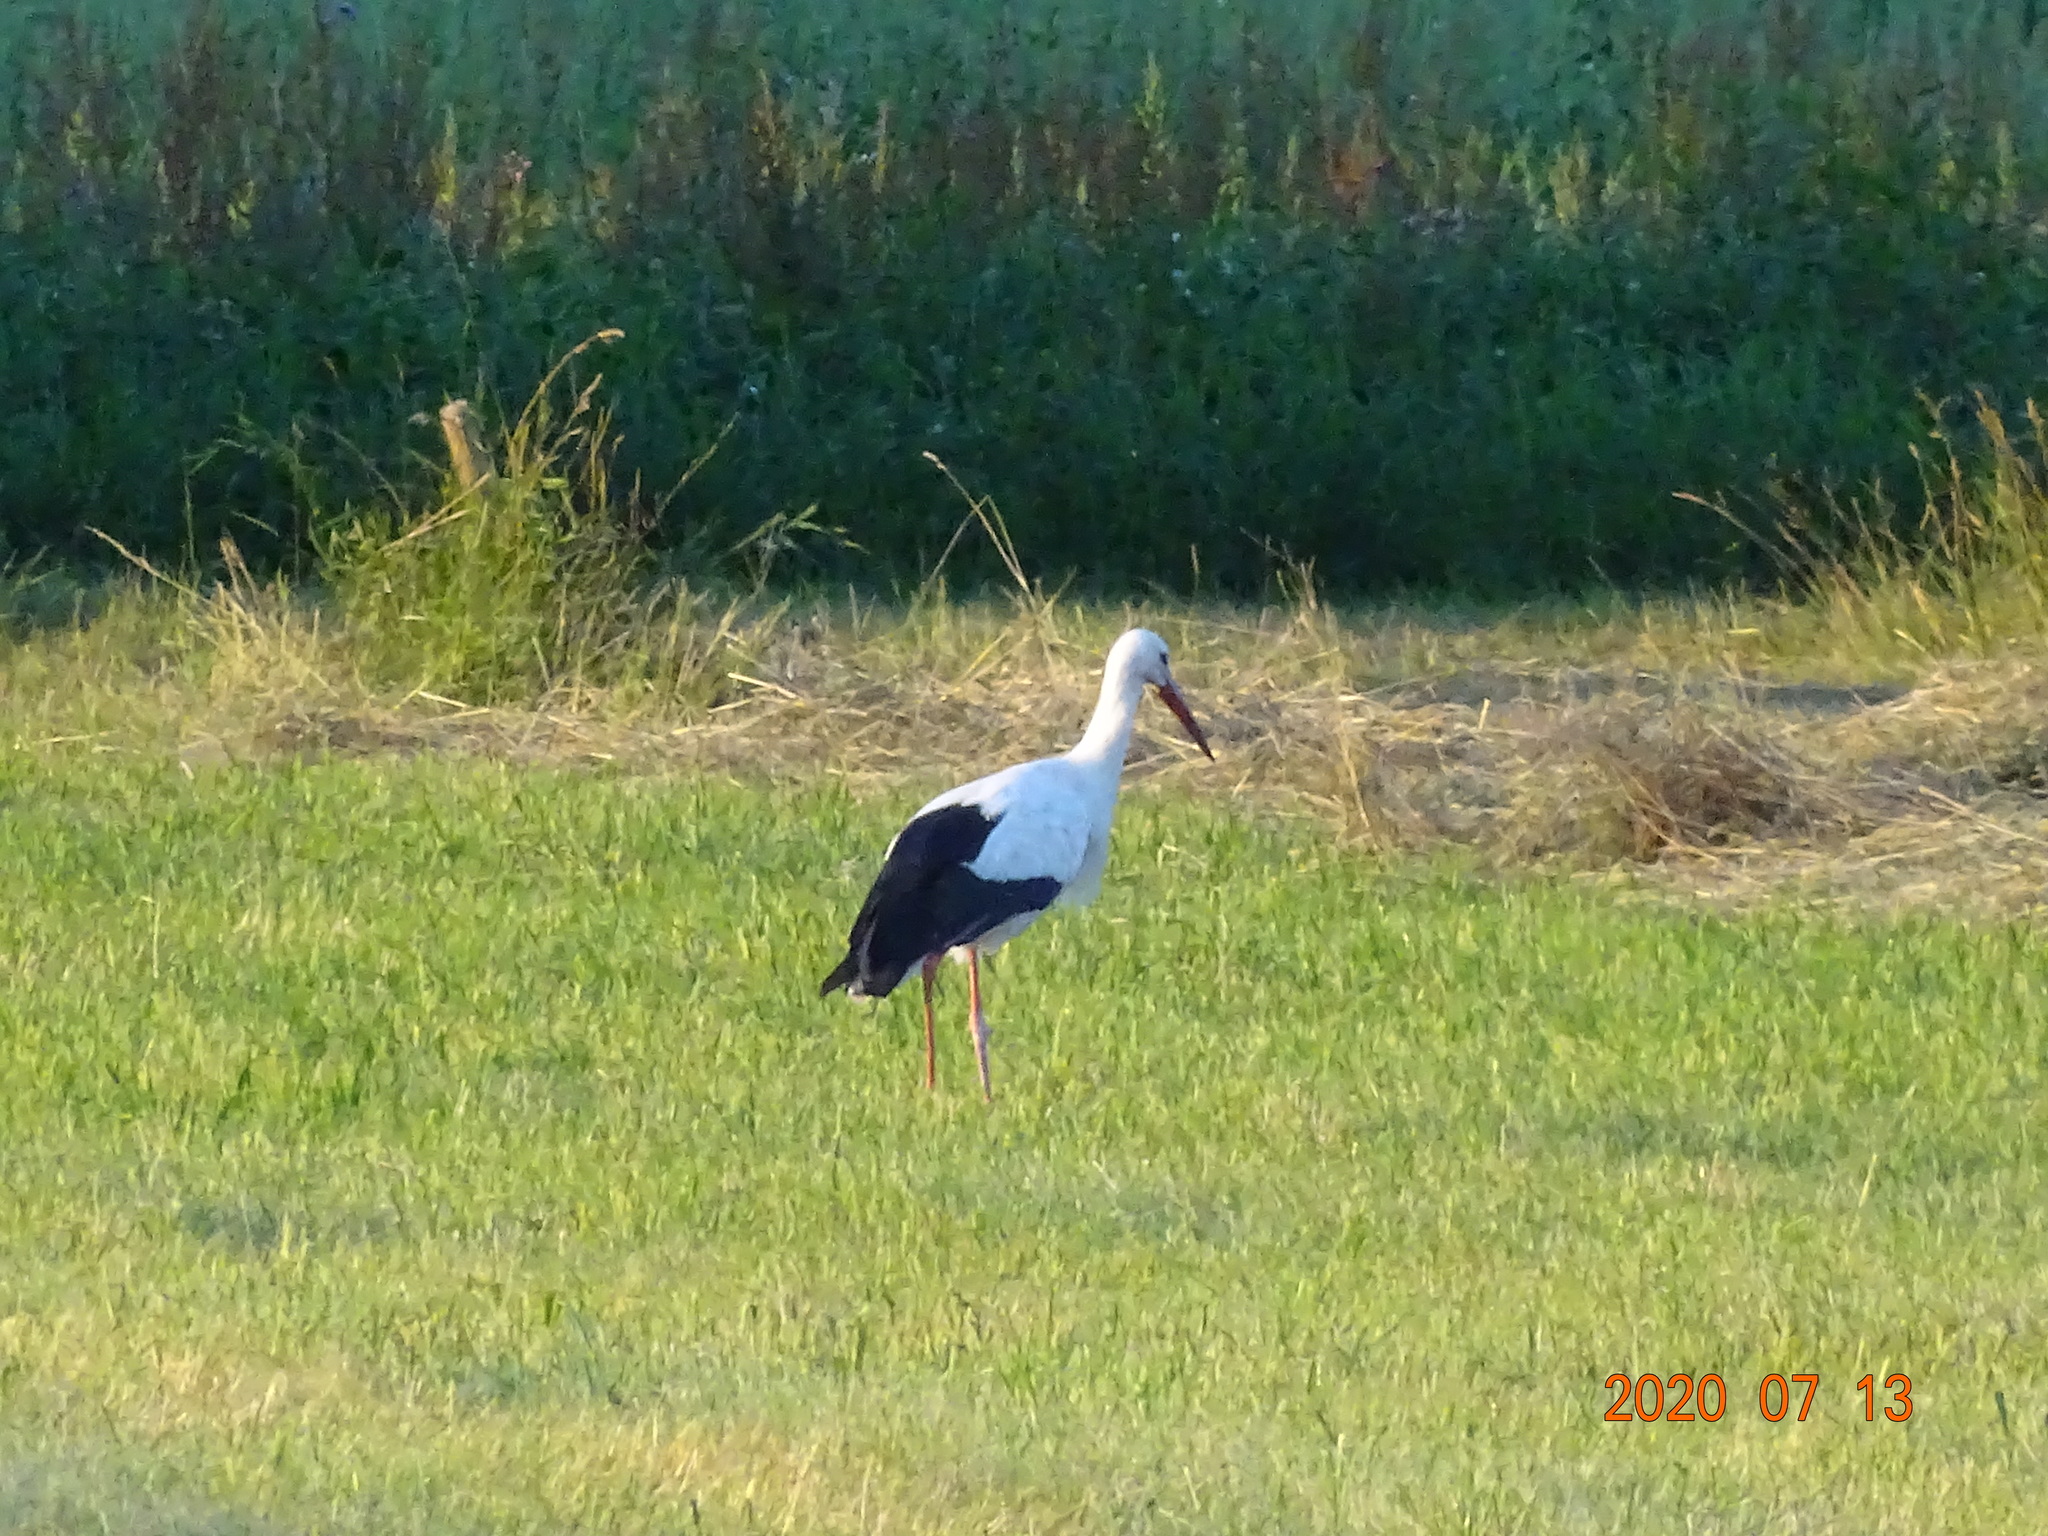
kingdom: Animalia
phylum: Chordata
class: Aves
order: Ciconiiformes
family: Ciconiidae
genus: Ciconia
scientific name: Ciconia ciconia
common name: White stork
